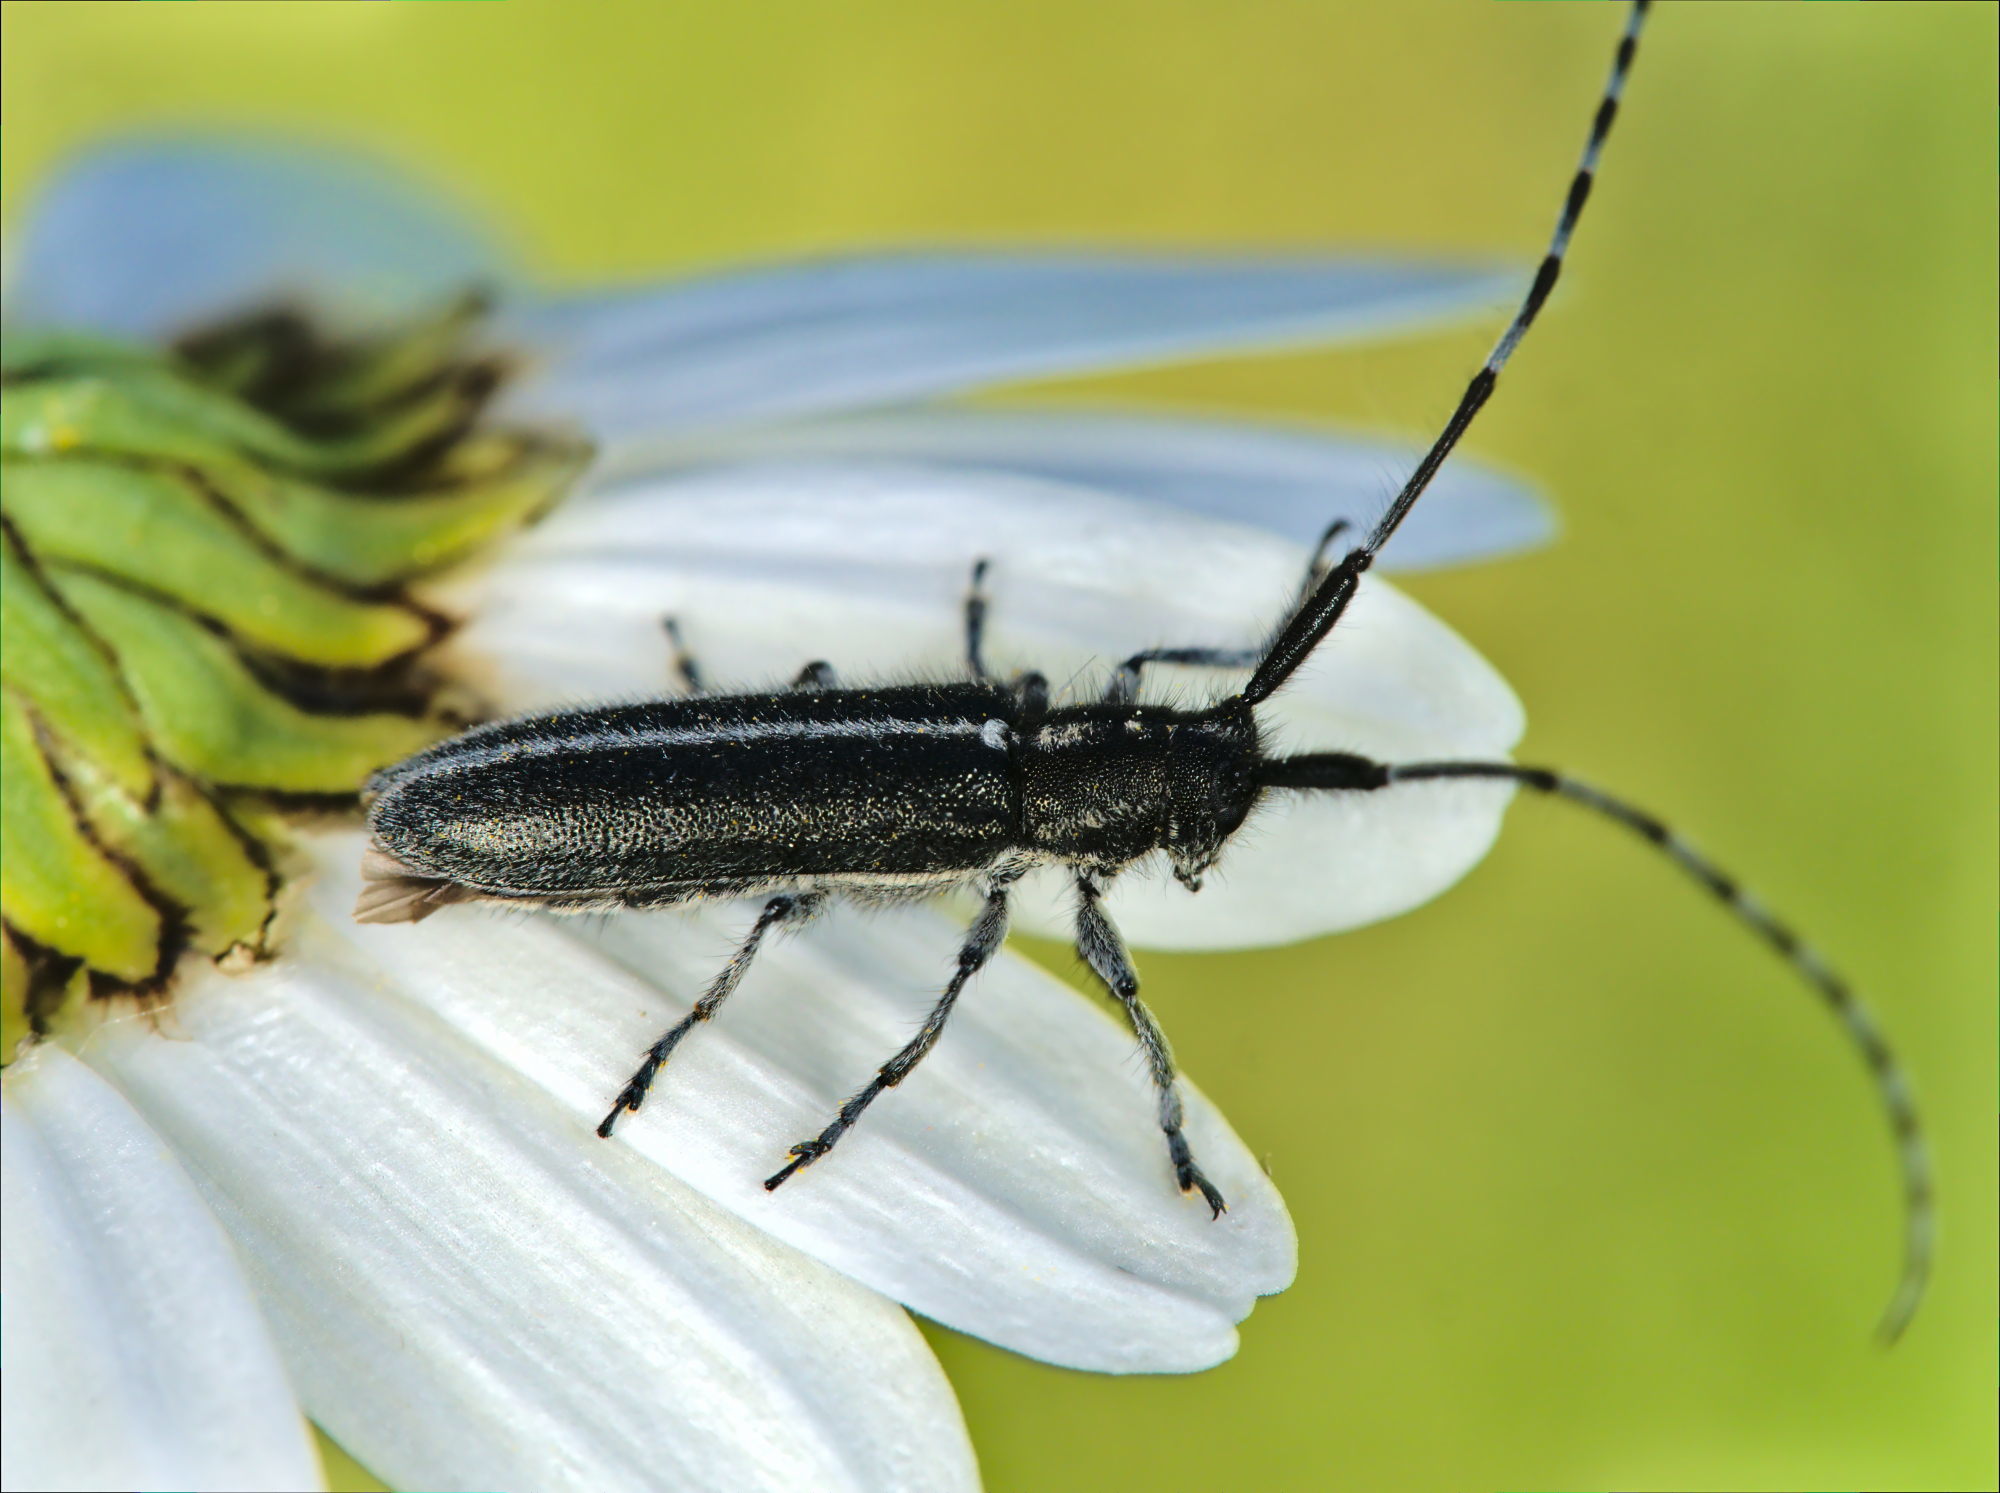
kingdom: Animalia
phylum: Arthropoda
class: Insecta
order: Coleoptera
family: Cerambycidae
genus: Agapanthia
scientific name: Agapanthia cardui
